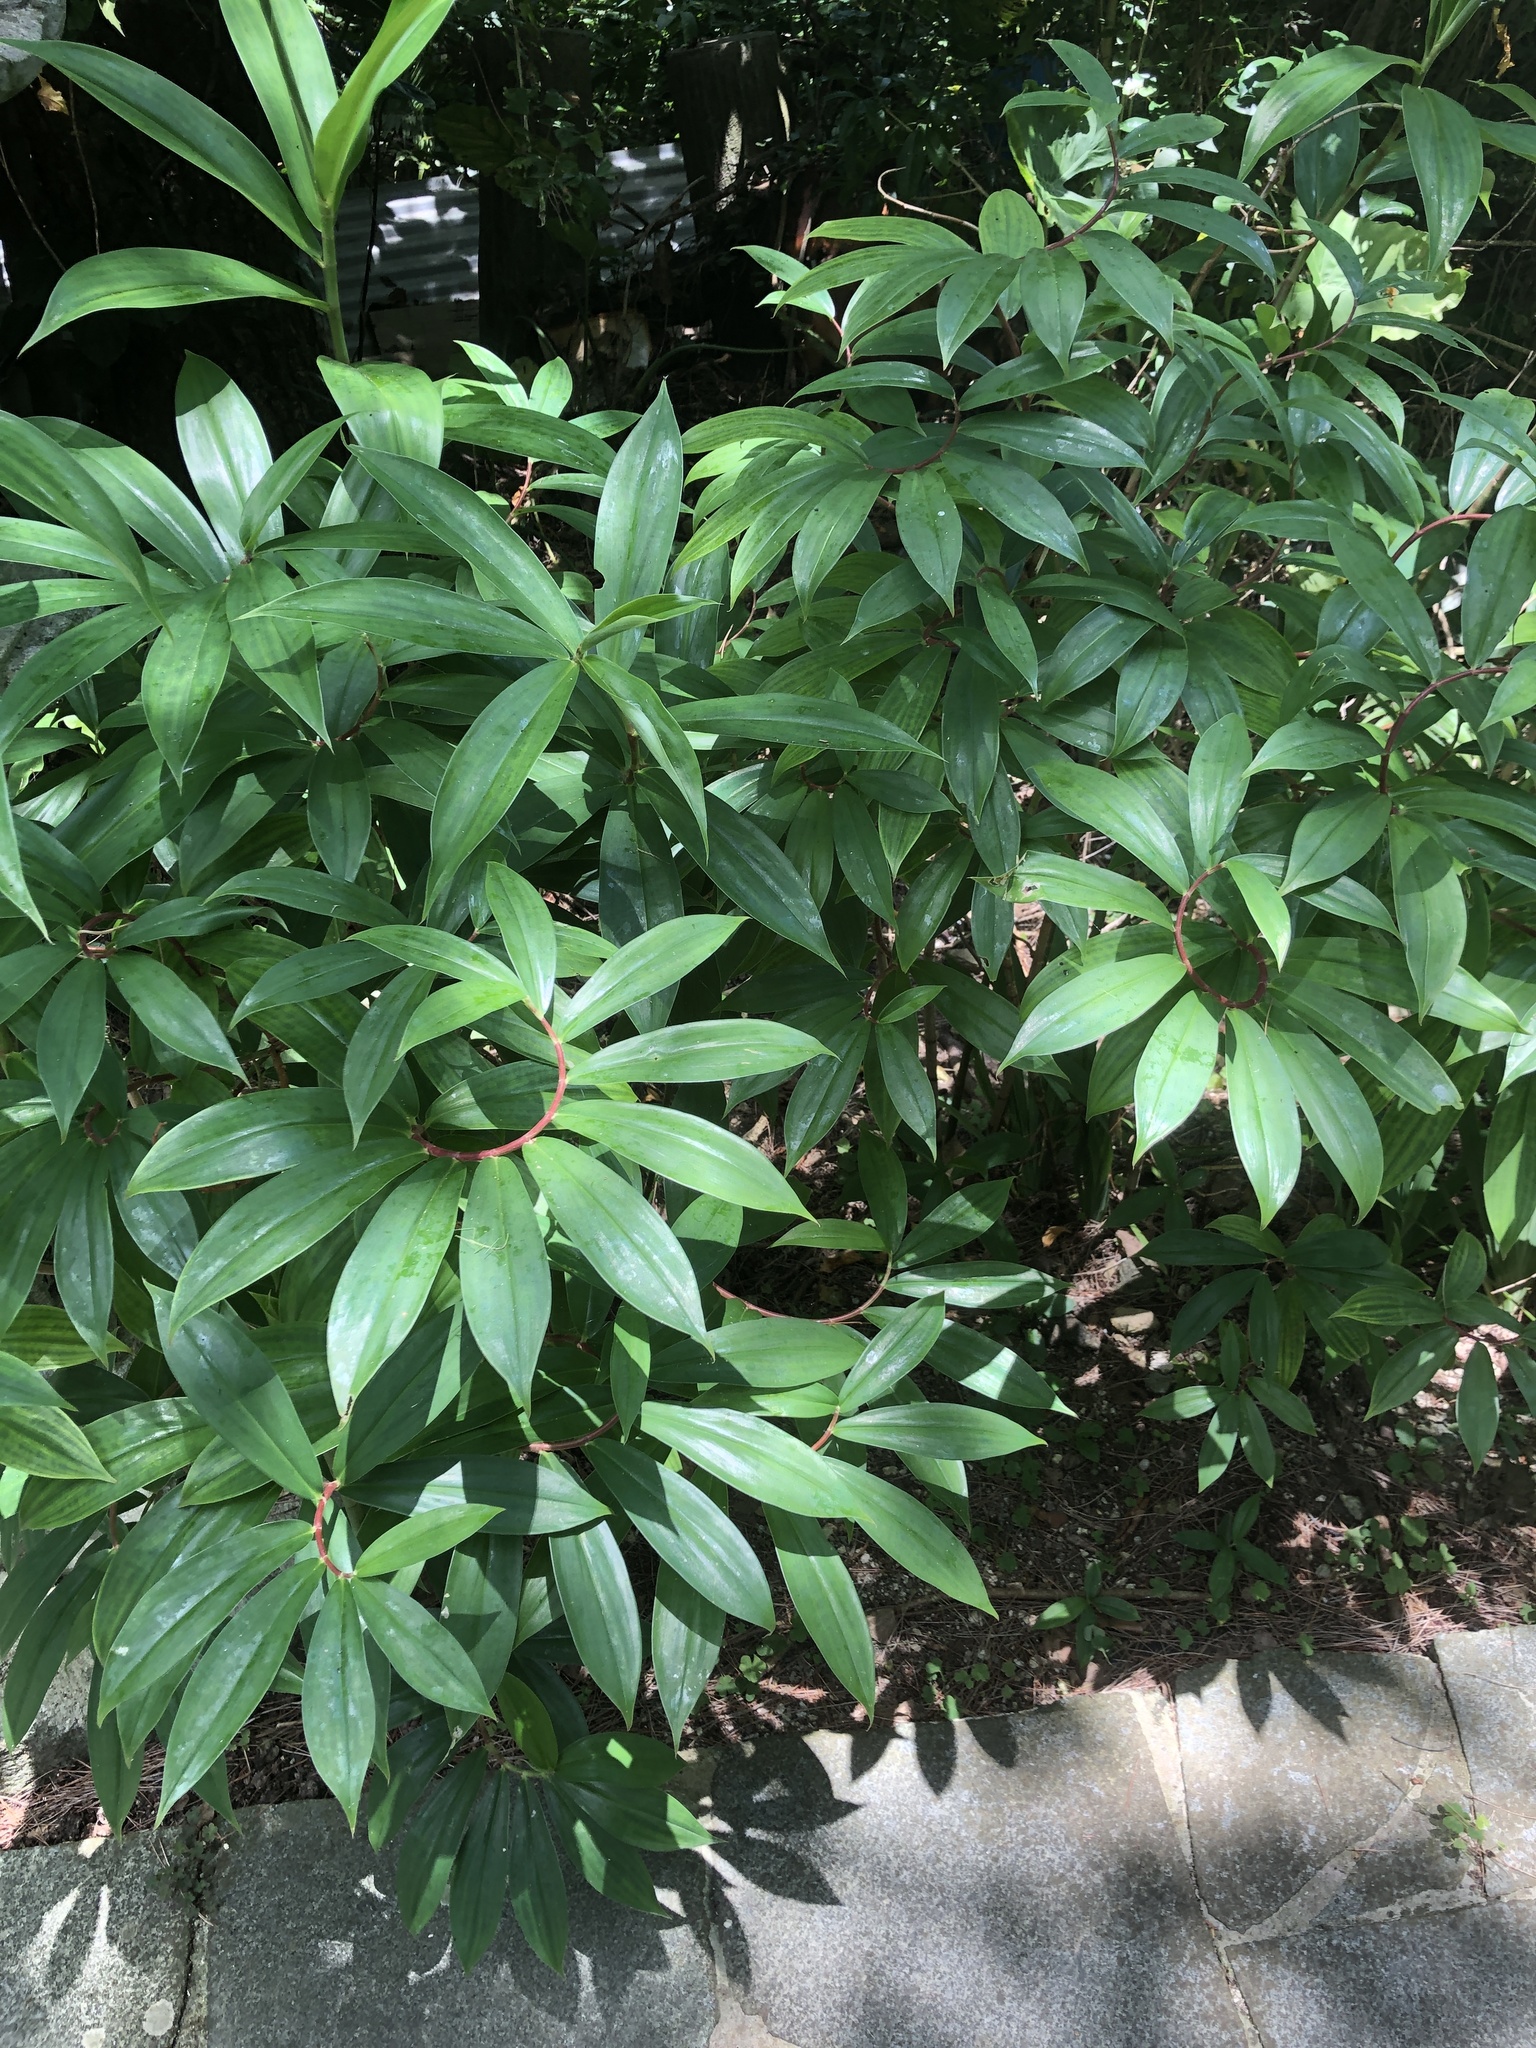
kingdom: Plantae
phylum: Tracheophyta
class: Liliopsida
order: Zingiberales
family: Costaceae
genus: Hellenia
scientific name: Hellenia speciosa
